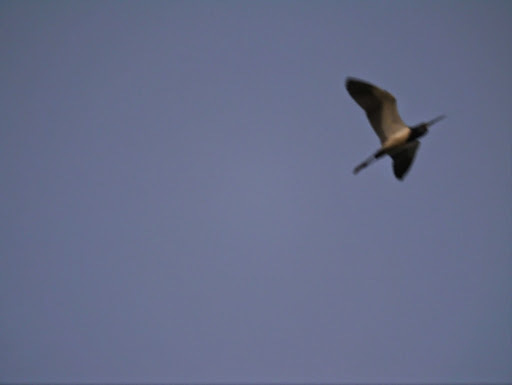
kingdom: Animalia
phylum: Chordata
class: Aves
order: Pelecaniformes
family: Ardeidae
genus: Egretta
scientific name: Egretta tricolor
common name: Tricolored heron
